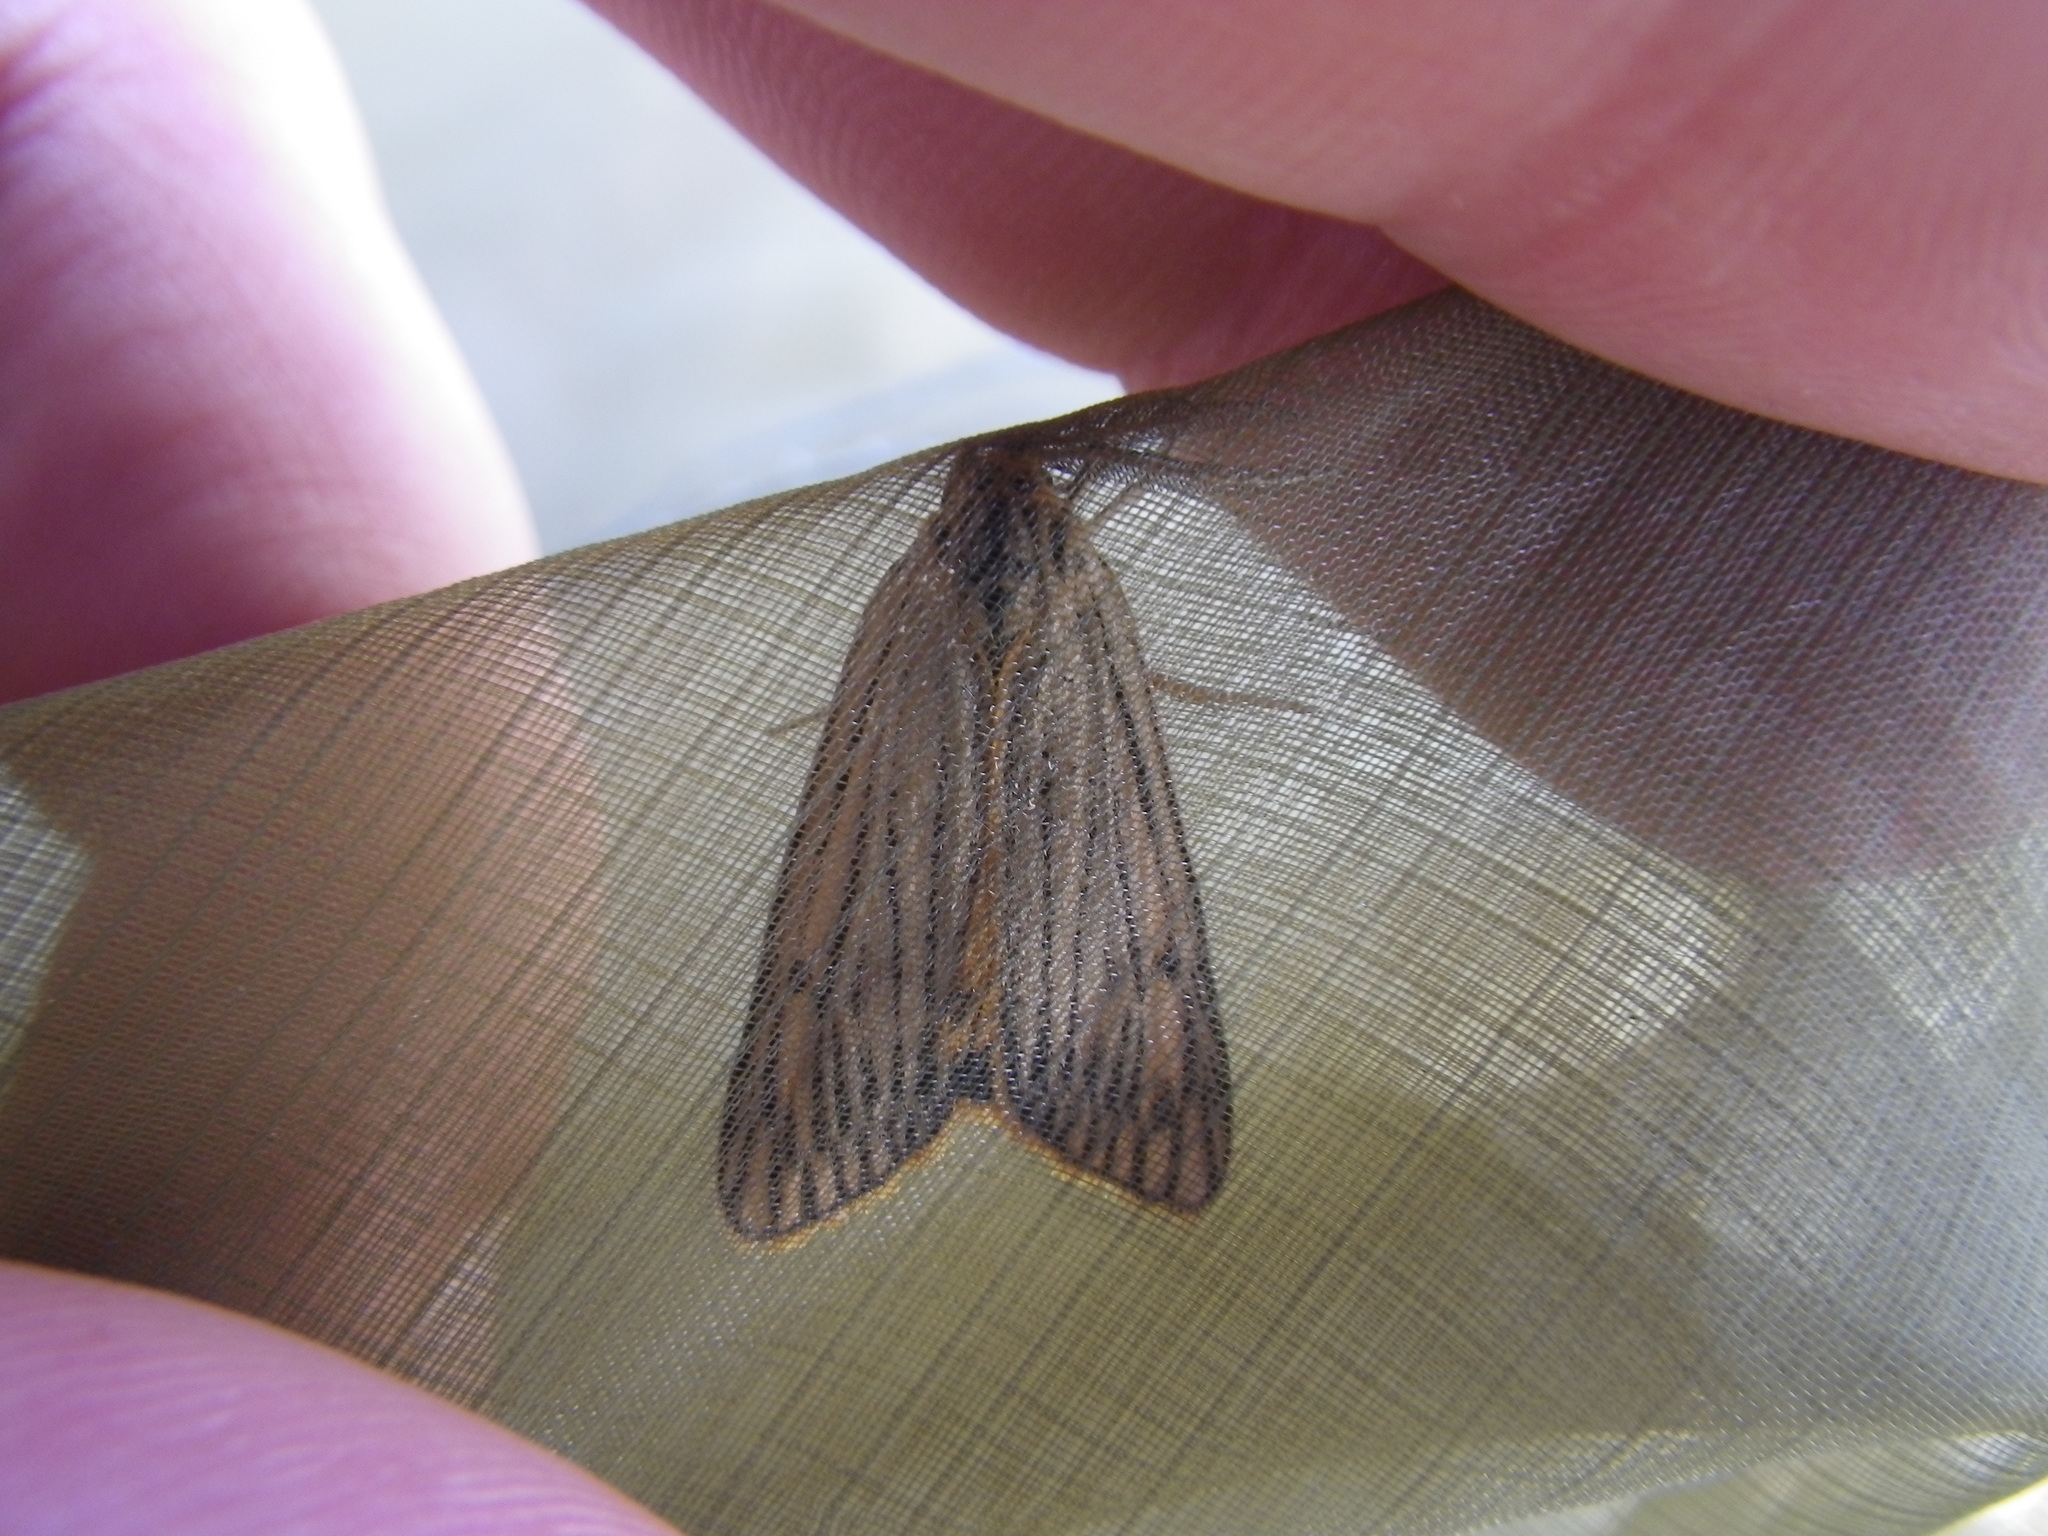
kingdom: Animalia
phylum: Arthropoda
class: Insecta
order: Lepidoptera
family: Erebidae
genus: Coscinia
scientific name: Coscinia Spiris striata
